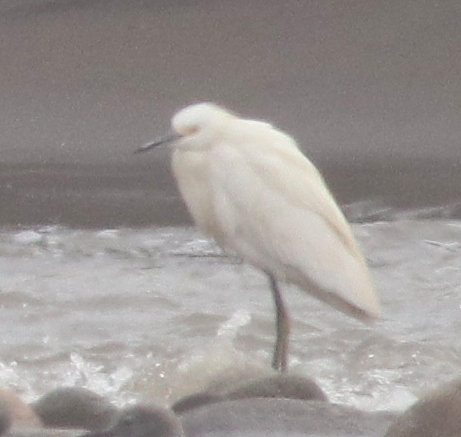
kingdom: Animalia
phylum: Chordata
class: Aves
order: Pelecaniformes
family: Ardeidae
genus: Egretta
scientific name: Egretta thula
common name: Snowy egret
